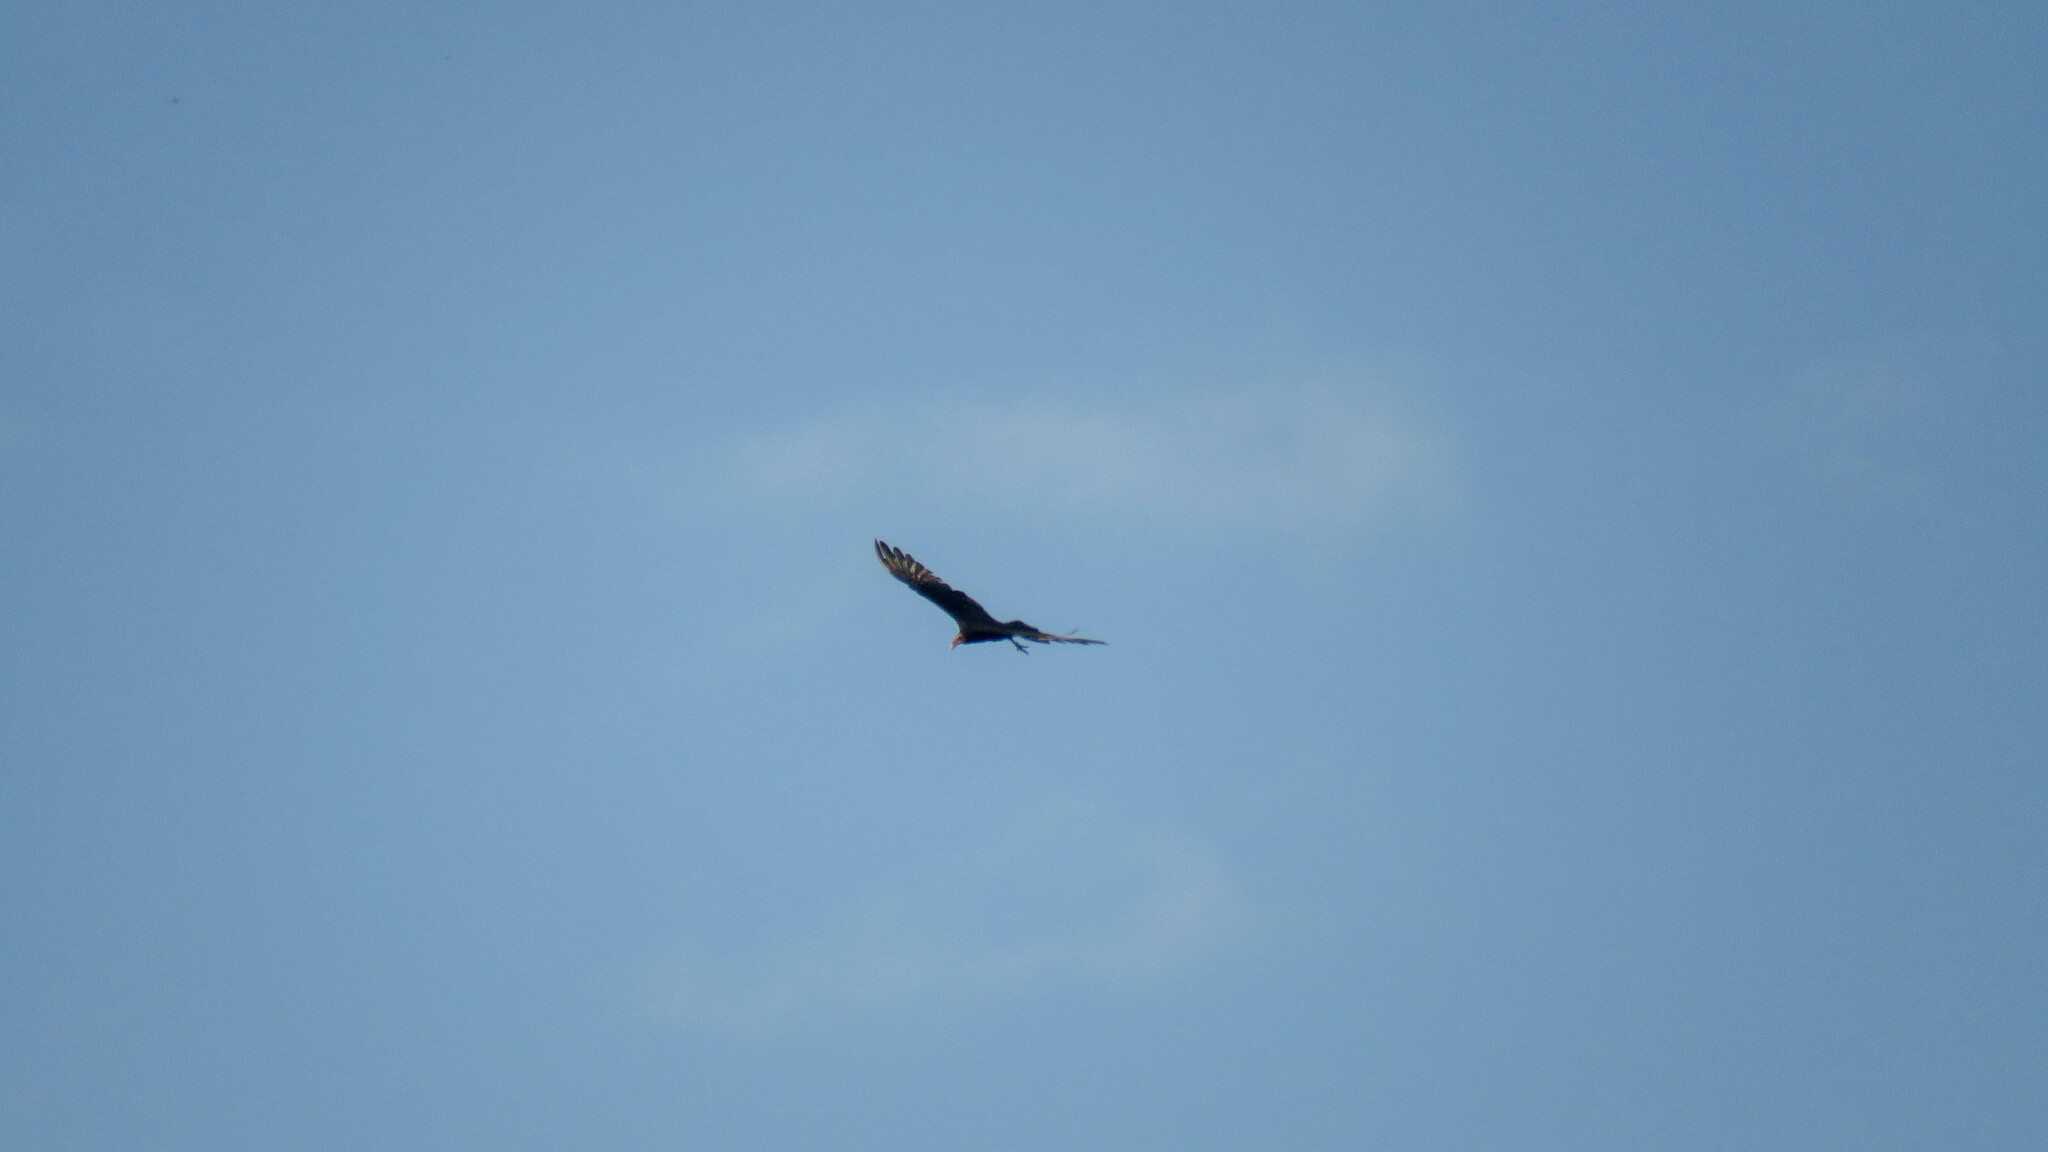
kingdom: Animalia
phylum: Chordata
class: Aves
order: Accipitriformes
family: Cathartidae
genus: Cathartes
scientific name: Cathartes burrovianus
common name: Lesser yellow-headed vulture
